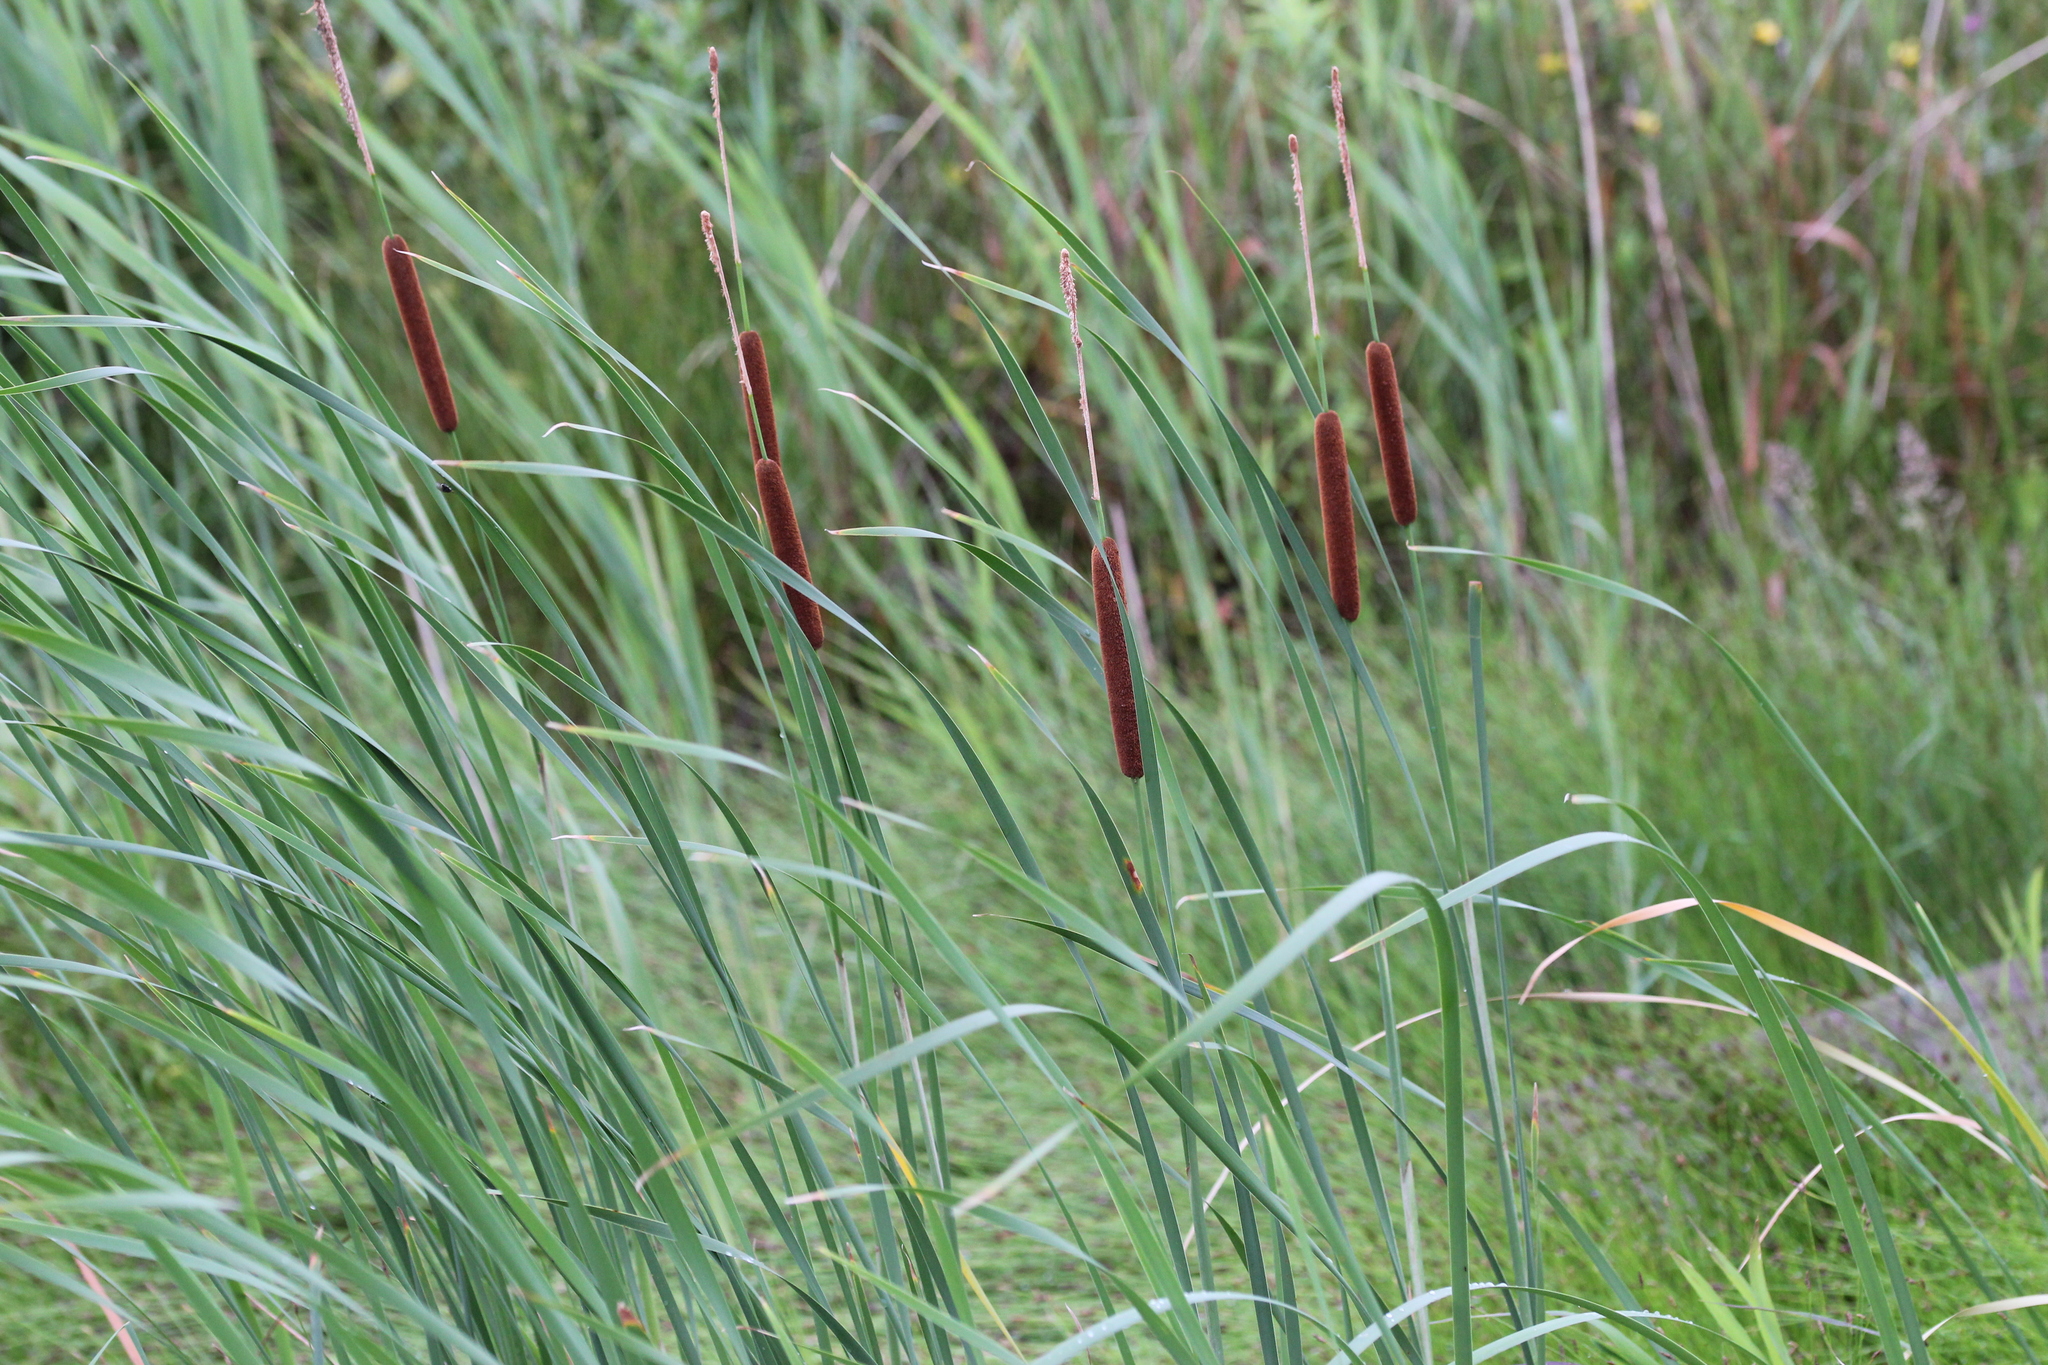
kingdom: Plantae
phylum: Tracheophyta
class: Liliopsida
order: Poales
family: Typhaceae
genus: Typha
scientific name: Typha angustifolia
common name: Lesser bulrush
